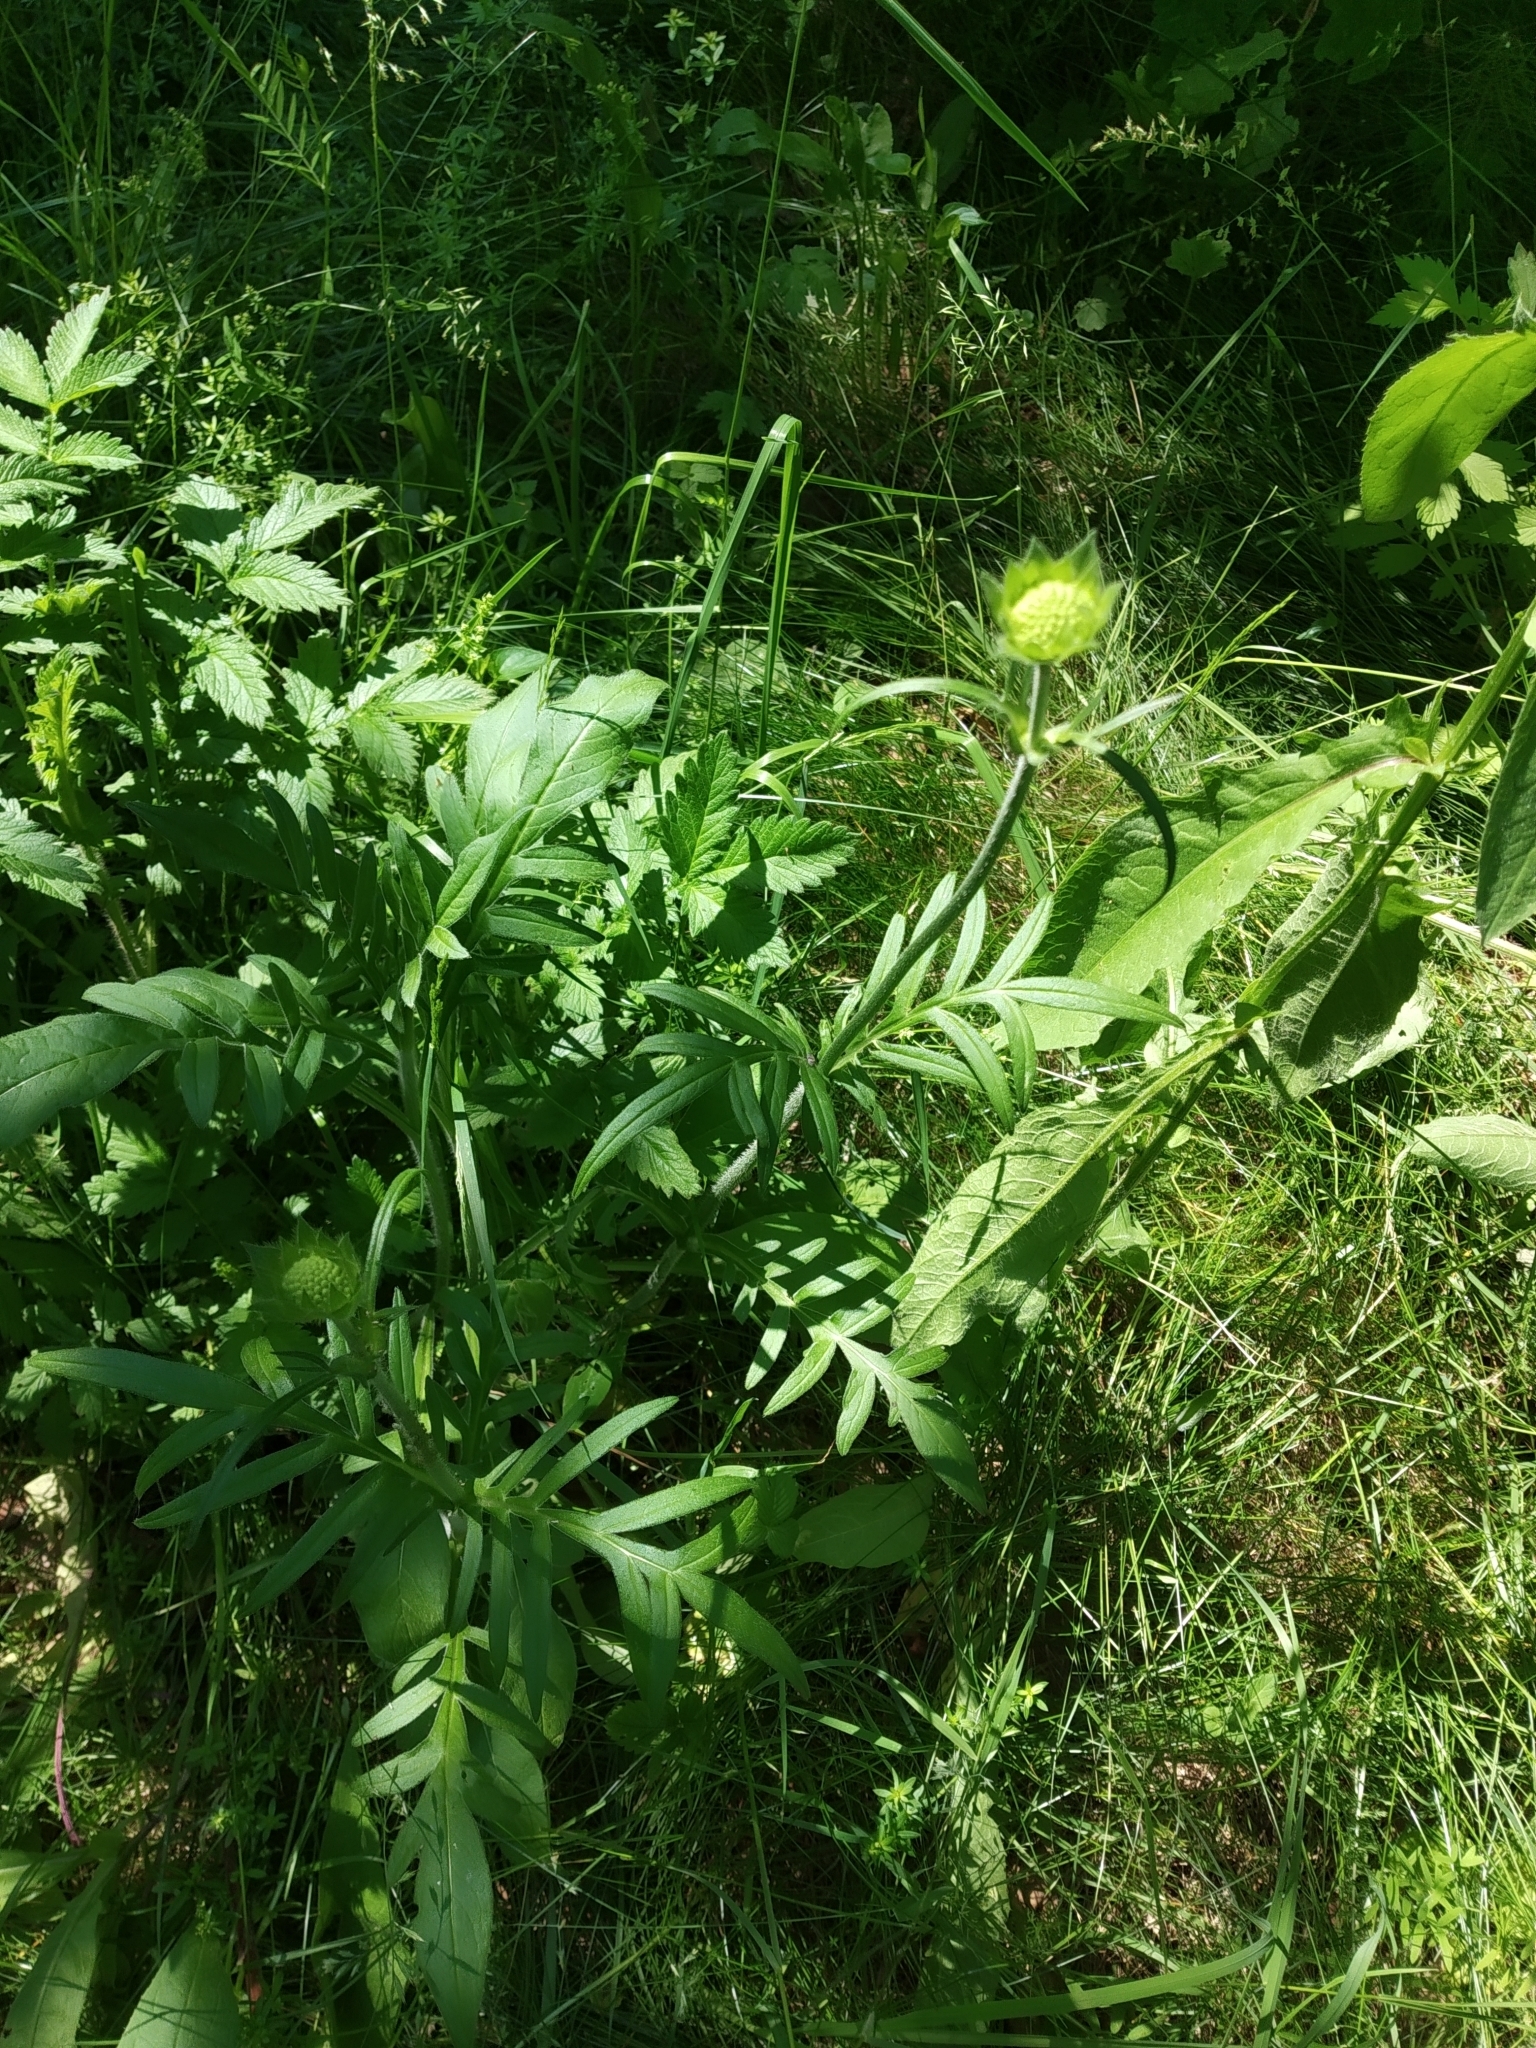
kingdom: Plantae
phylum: Tracheophyta
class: Magnoliopsida
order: Dipsacales
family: Caprifoliaceae
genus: Knautia
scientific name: Knautia arvensis
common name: Field scabiosa
